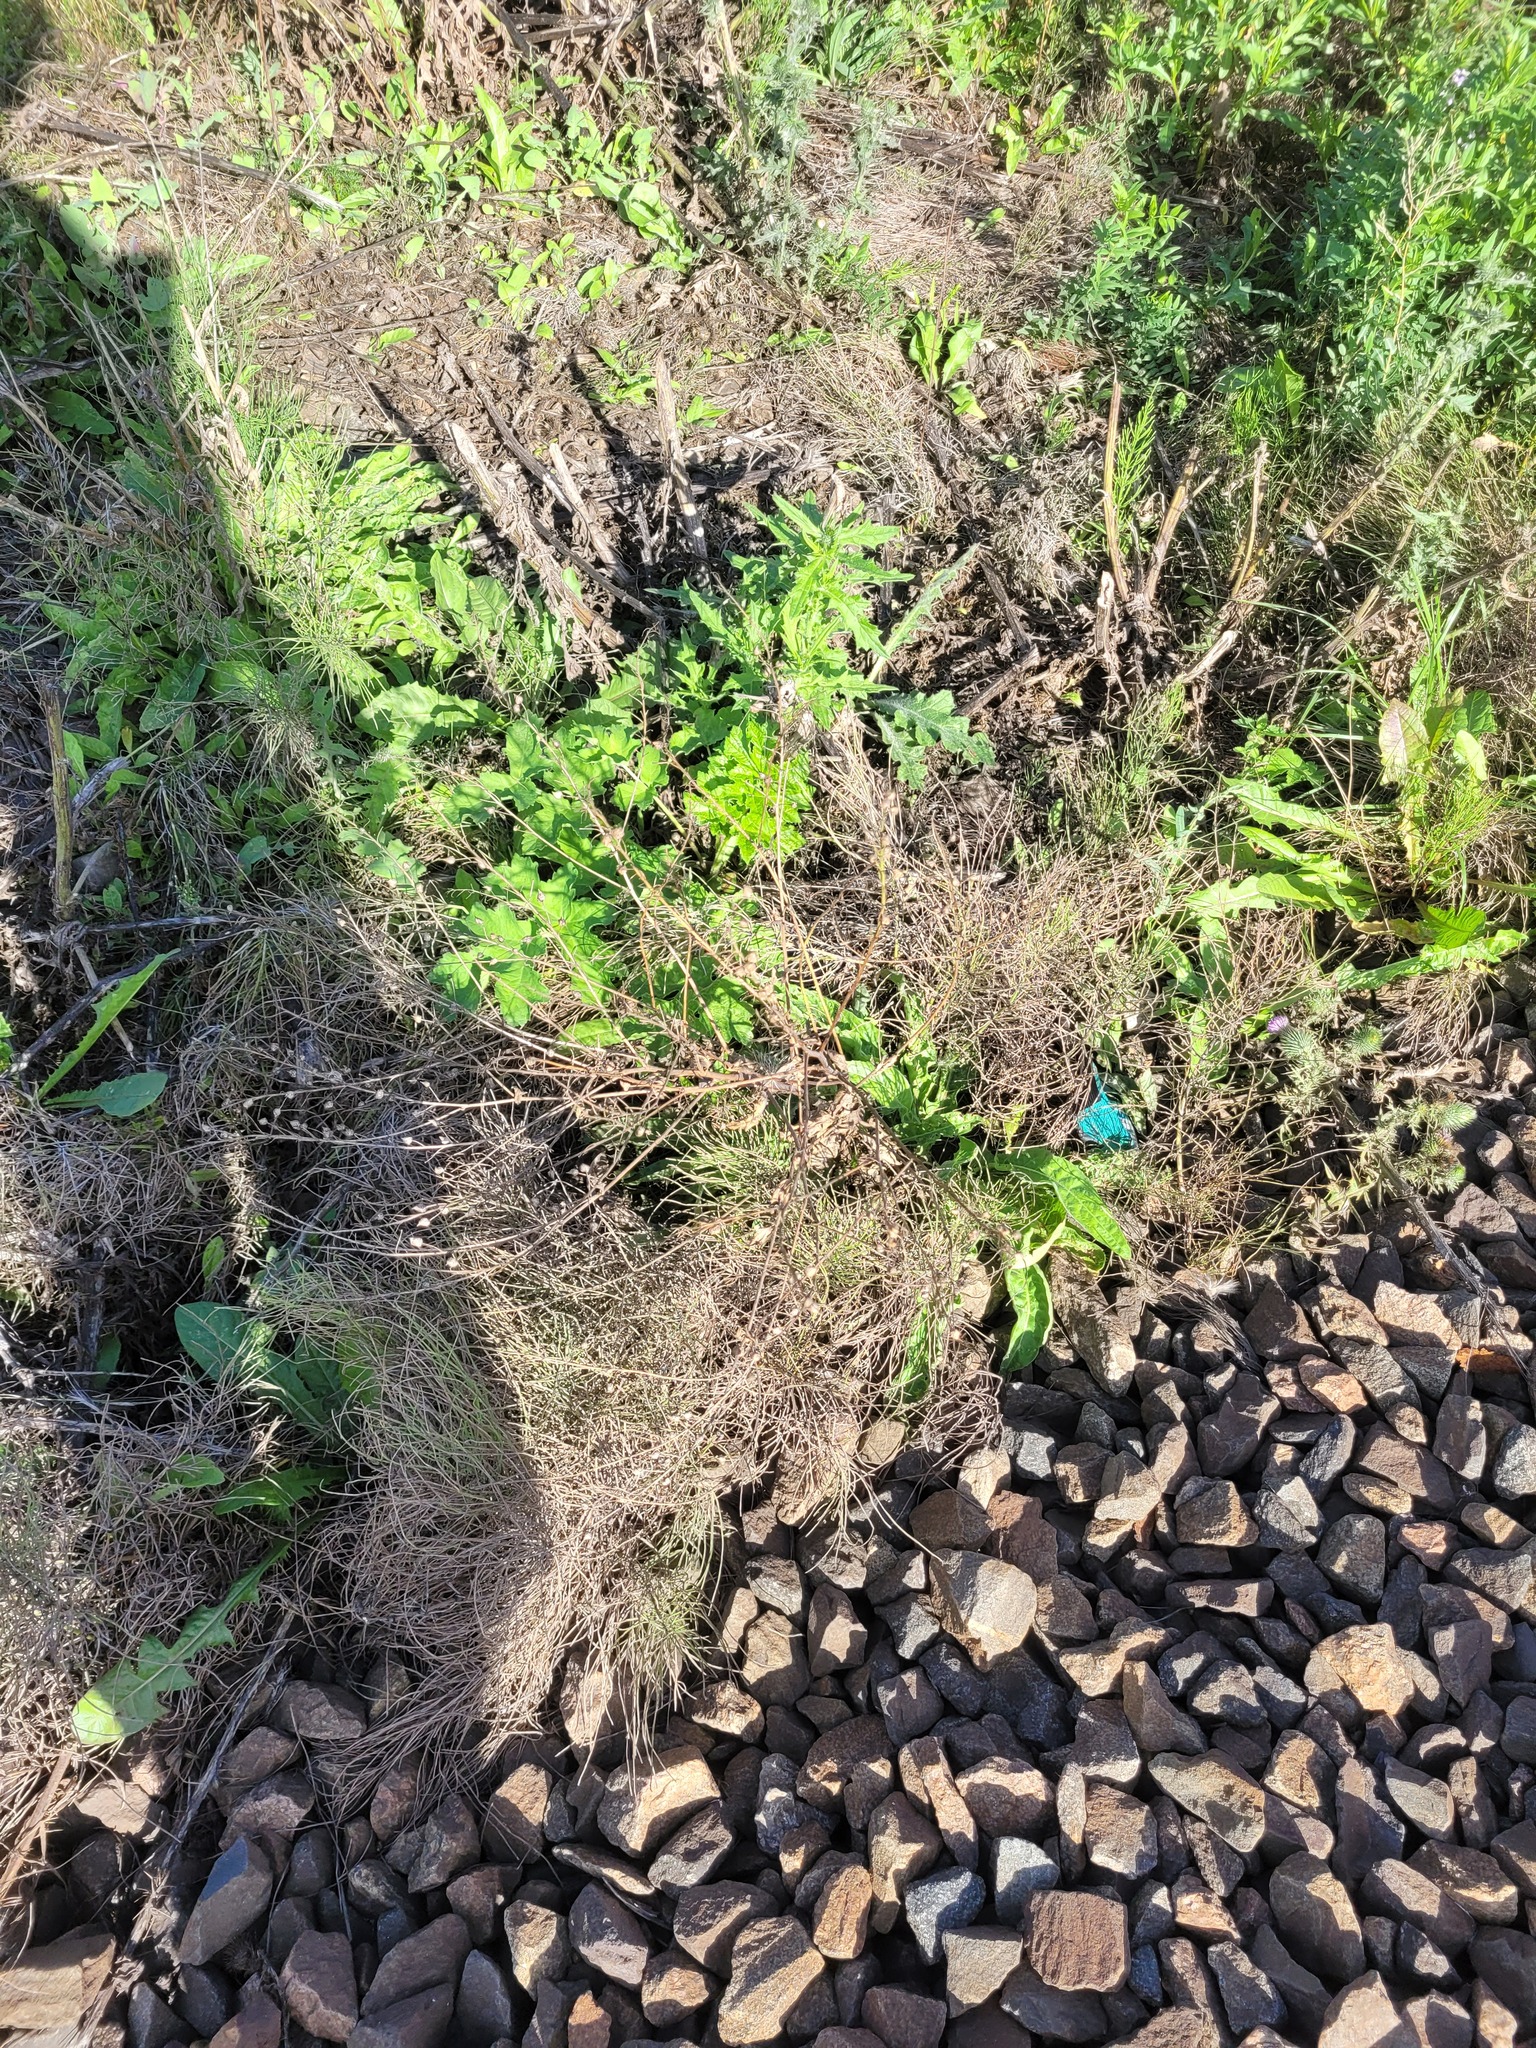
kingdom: Plantae
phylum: Tracheophyta
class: Magnoliopsida
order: Brassicales
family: Brassicaceae
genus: Bunias
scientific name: Bunias orientalis
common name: Warty-cabbage
